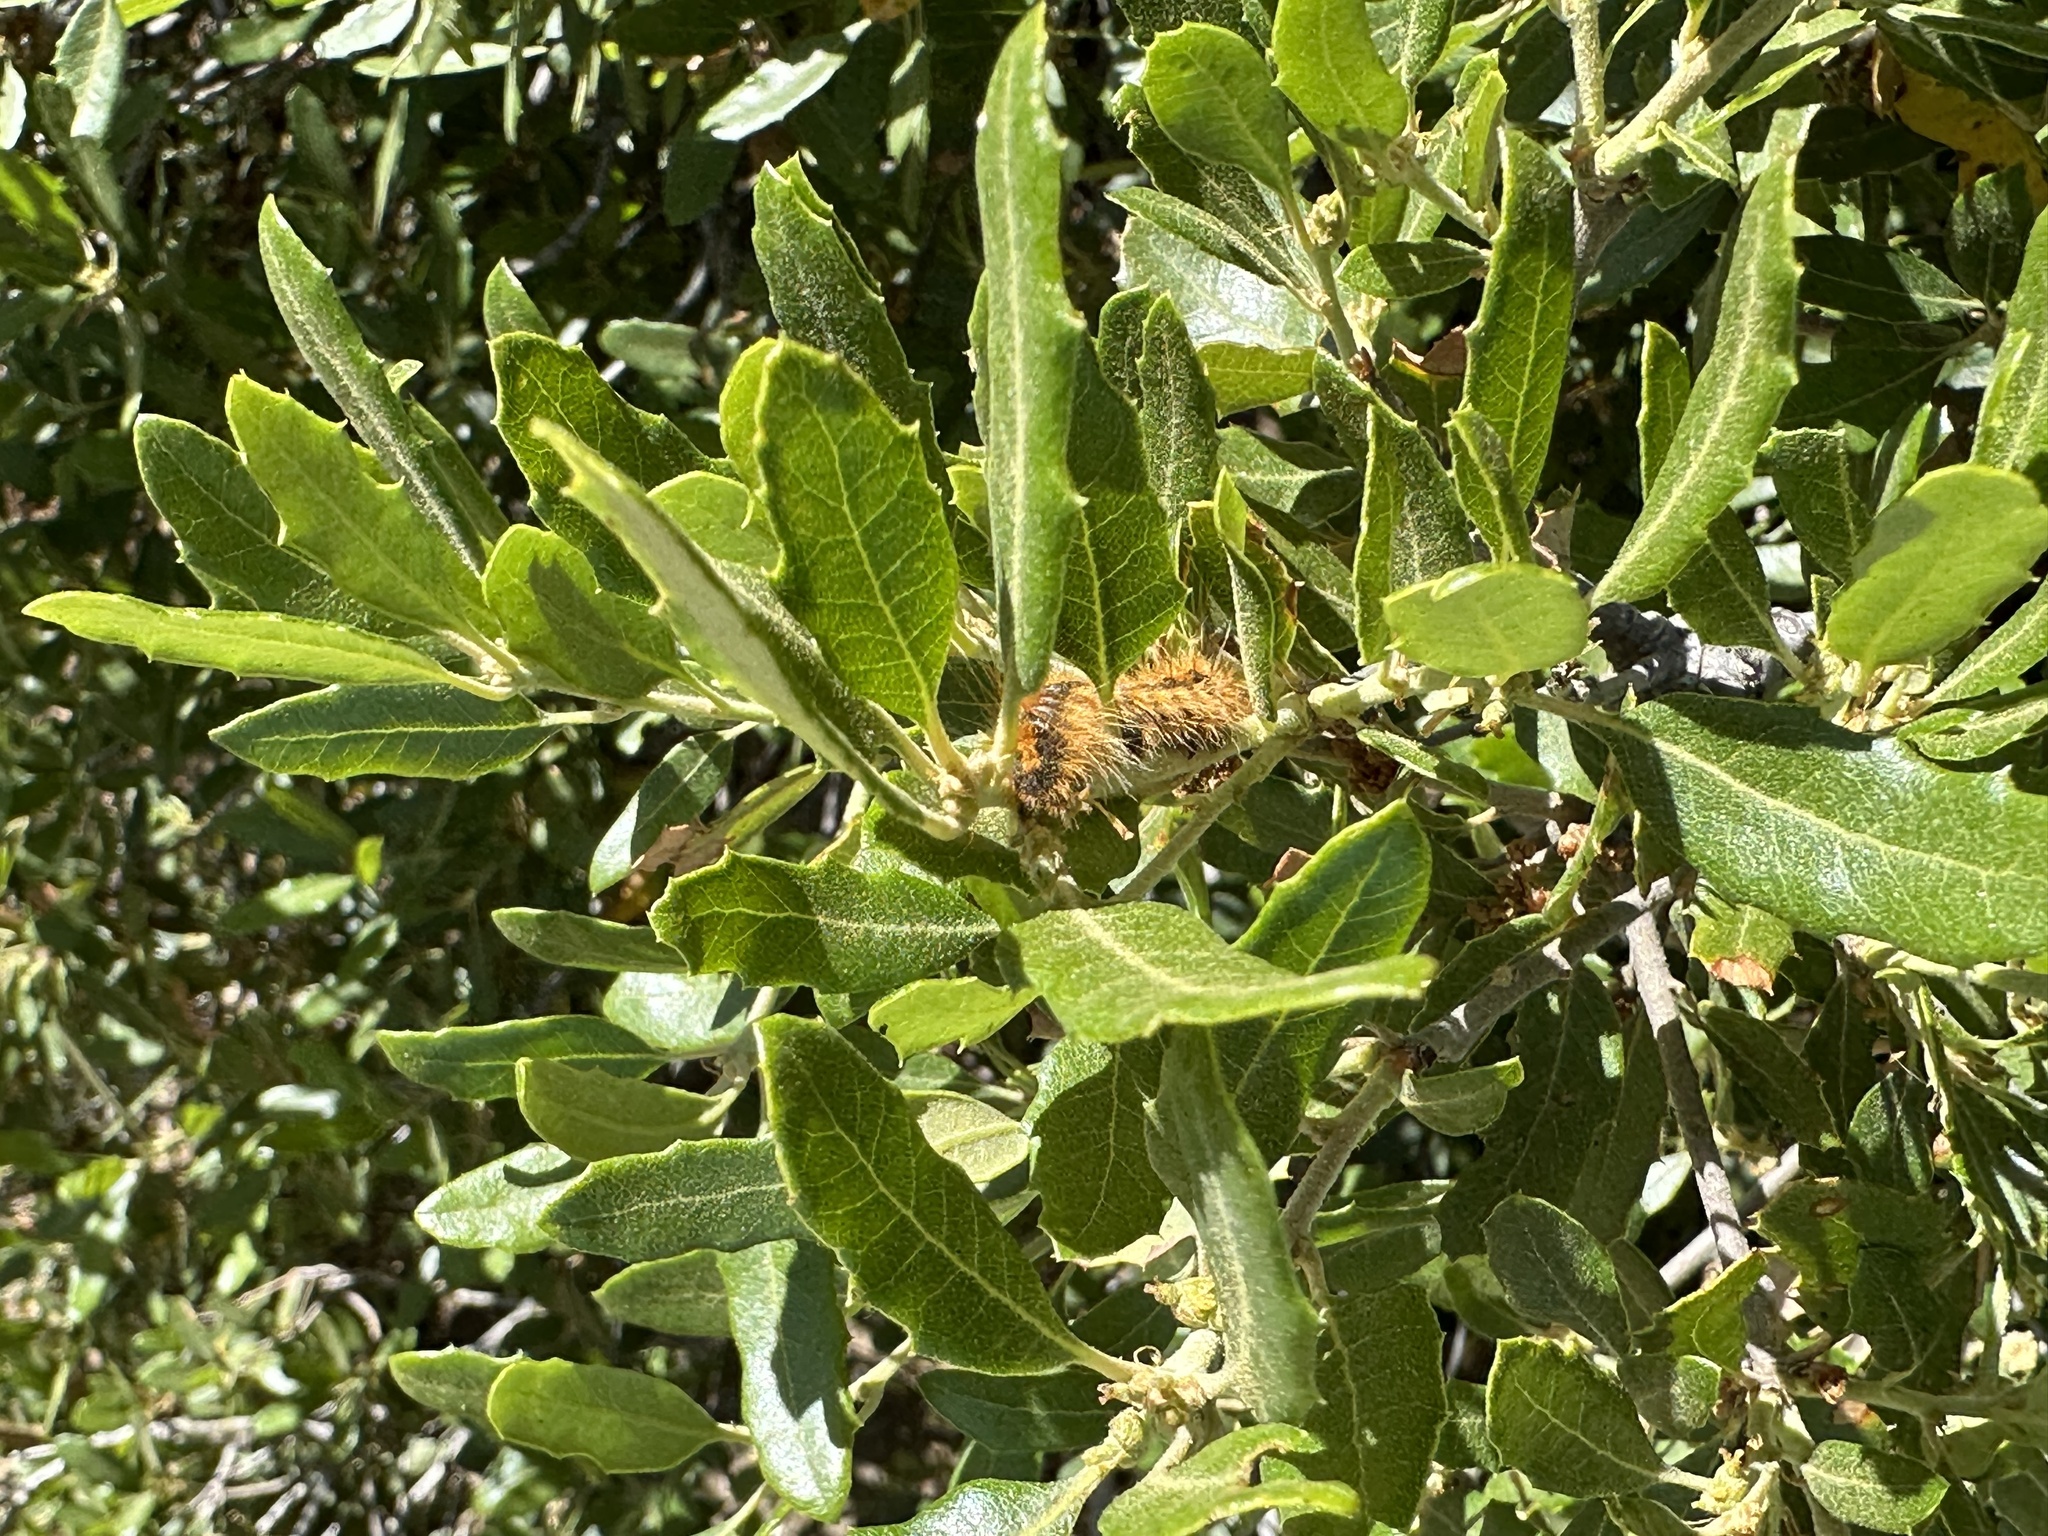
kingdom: Plantae
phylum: Tracheophyta
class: Magnoliopsida
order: Fagales
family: Fagaceae
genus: Quercus
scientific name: Quercus cornelius-mulleri
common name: Muller oak
